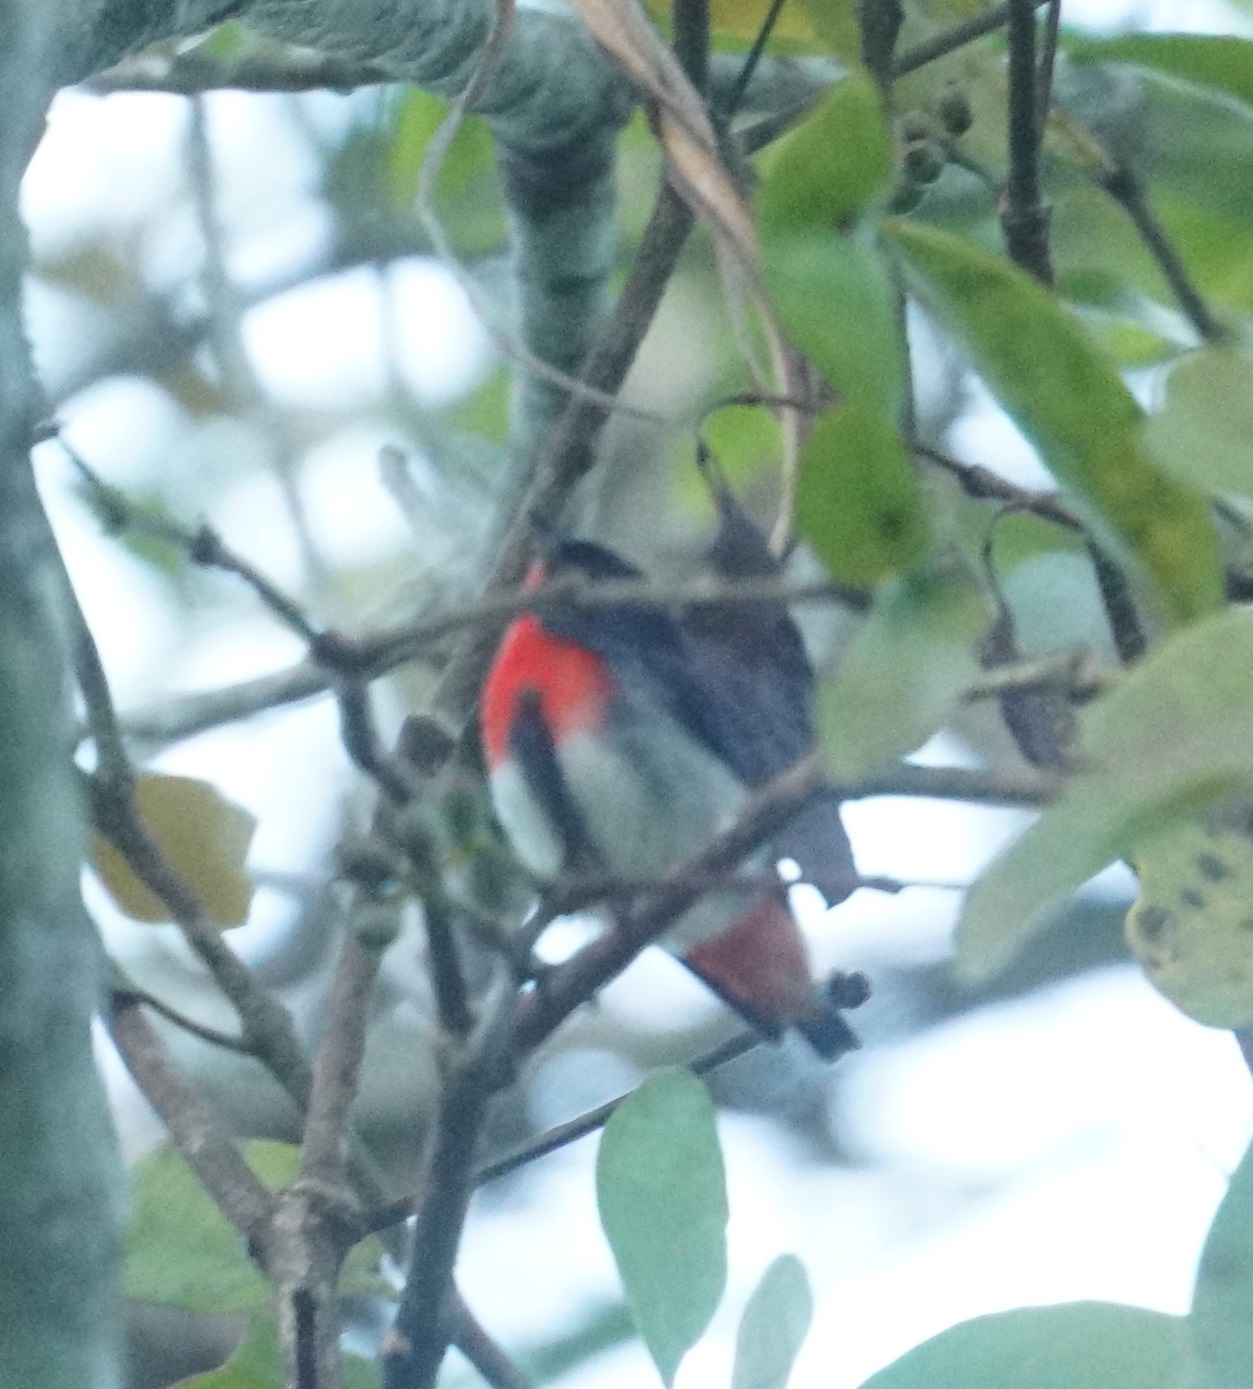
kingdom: Animalia
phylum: Chordata
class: Aves
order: Passeriformes
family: Dicaeidae
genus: Dicaeum
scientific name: Dicaeum hirundinaceum
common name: Mistletoebird
